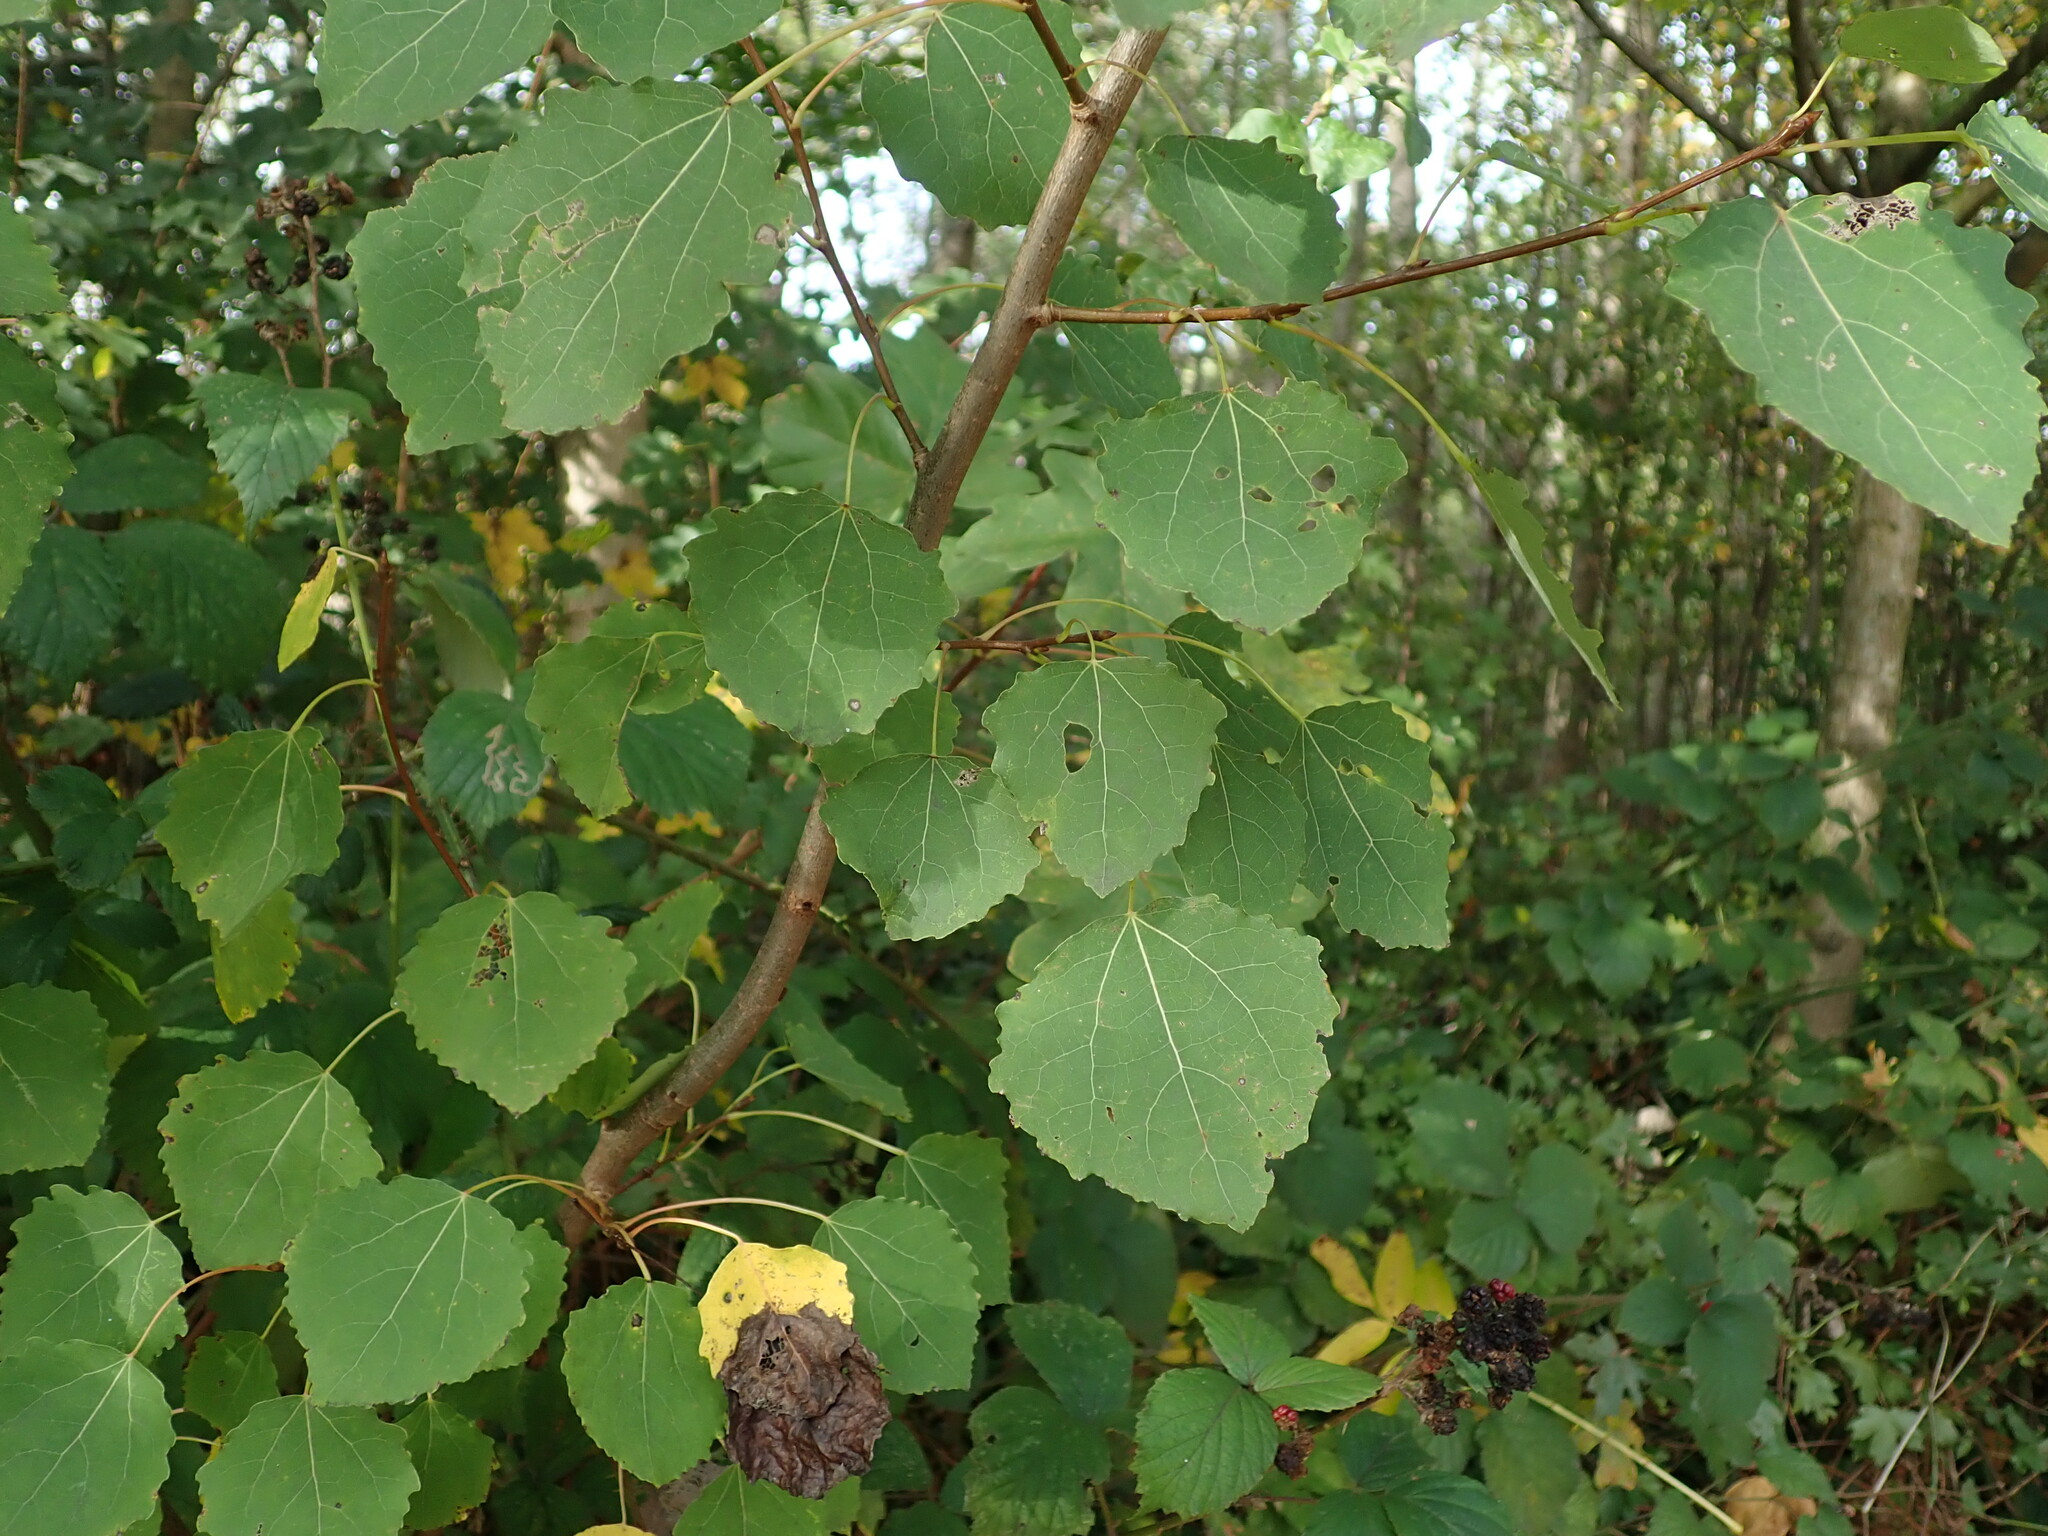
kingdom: Plantae
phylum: Tracheophyta
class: Magnoliopsida
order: Malpighiales
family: Salicaceae
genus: Populus
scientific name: Populus tremula
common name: European aspen
